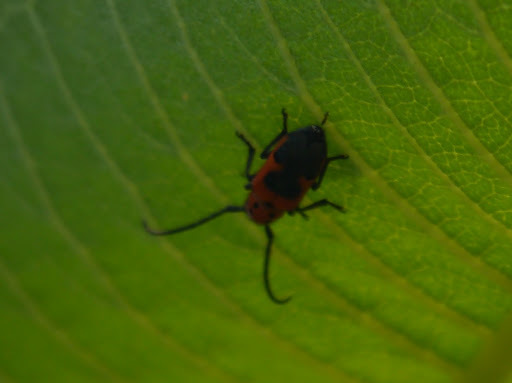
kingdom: Animalia
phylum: Arthropoda
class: Insecta
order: Coleoptera
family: Cerambycidae
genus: Tetraopes
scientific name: Tetraopes melanurus
